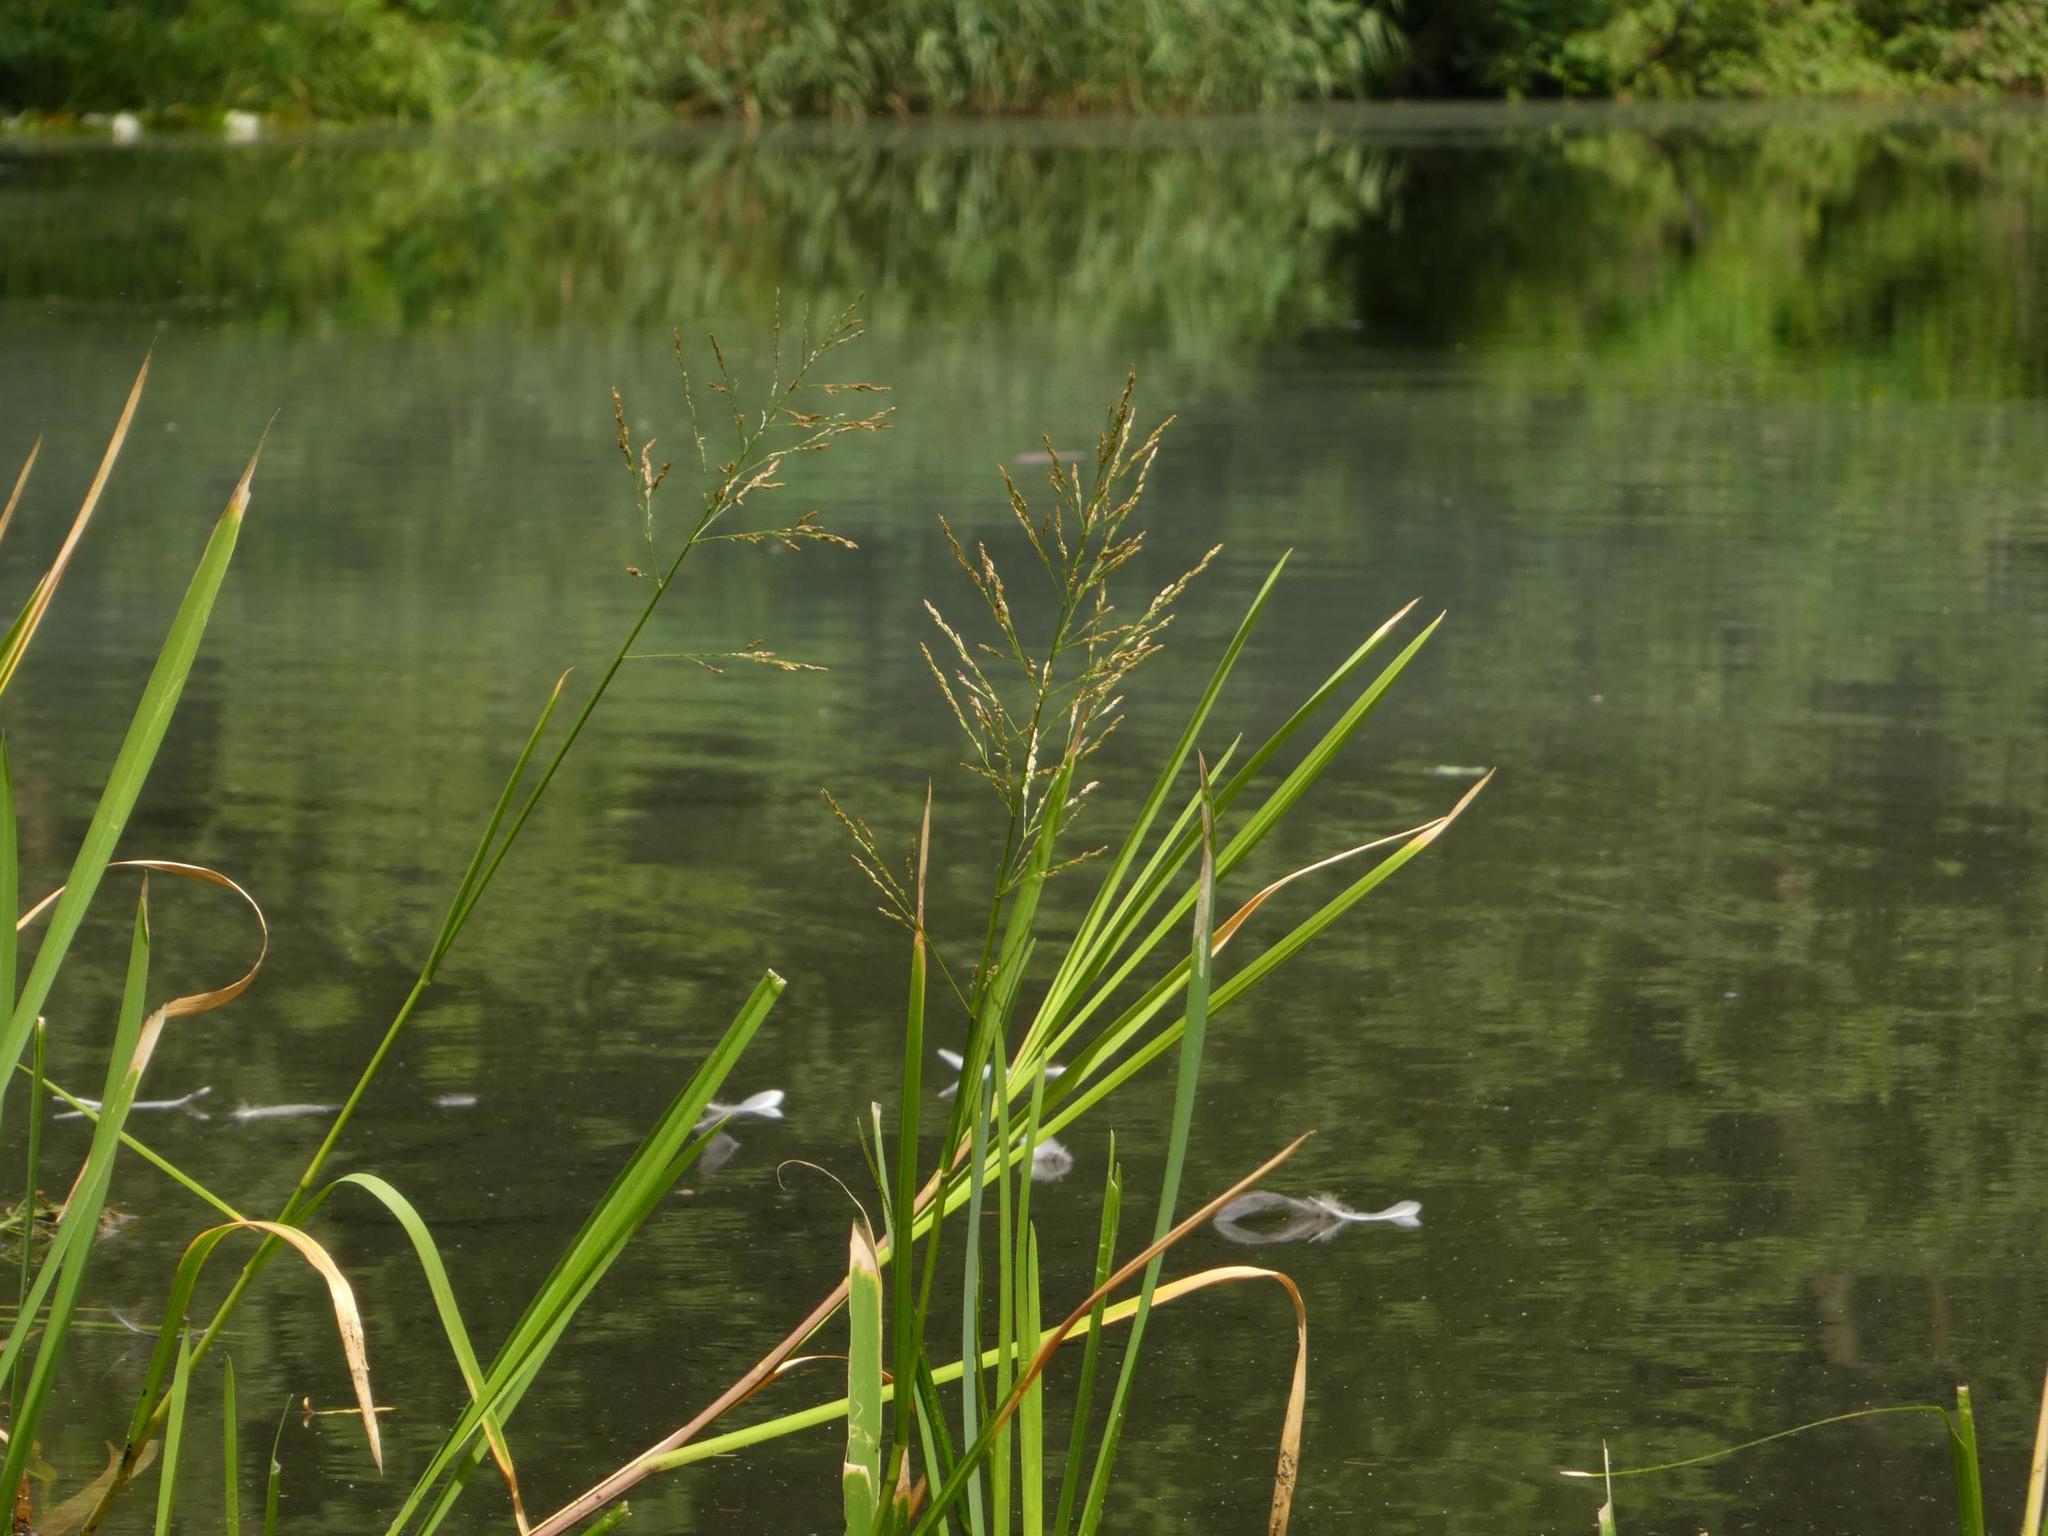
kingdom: Plantae
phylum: Tracheophyta
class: Liliopsida
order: Poales
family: Poaceae
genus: Glyceria
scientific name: Glyceria maxima
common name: Reed mannagrass
